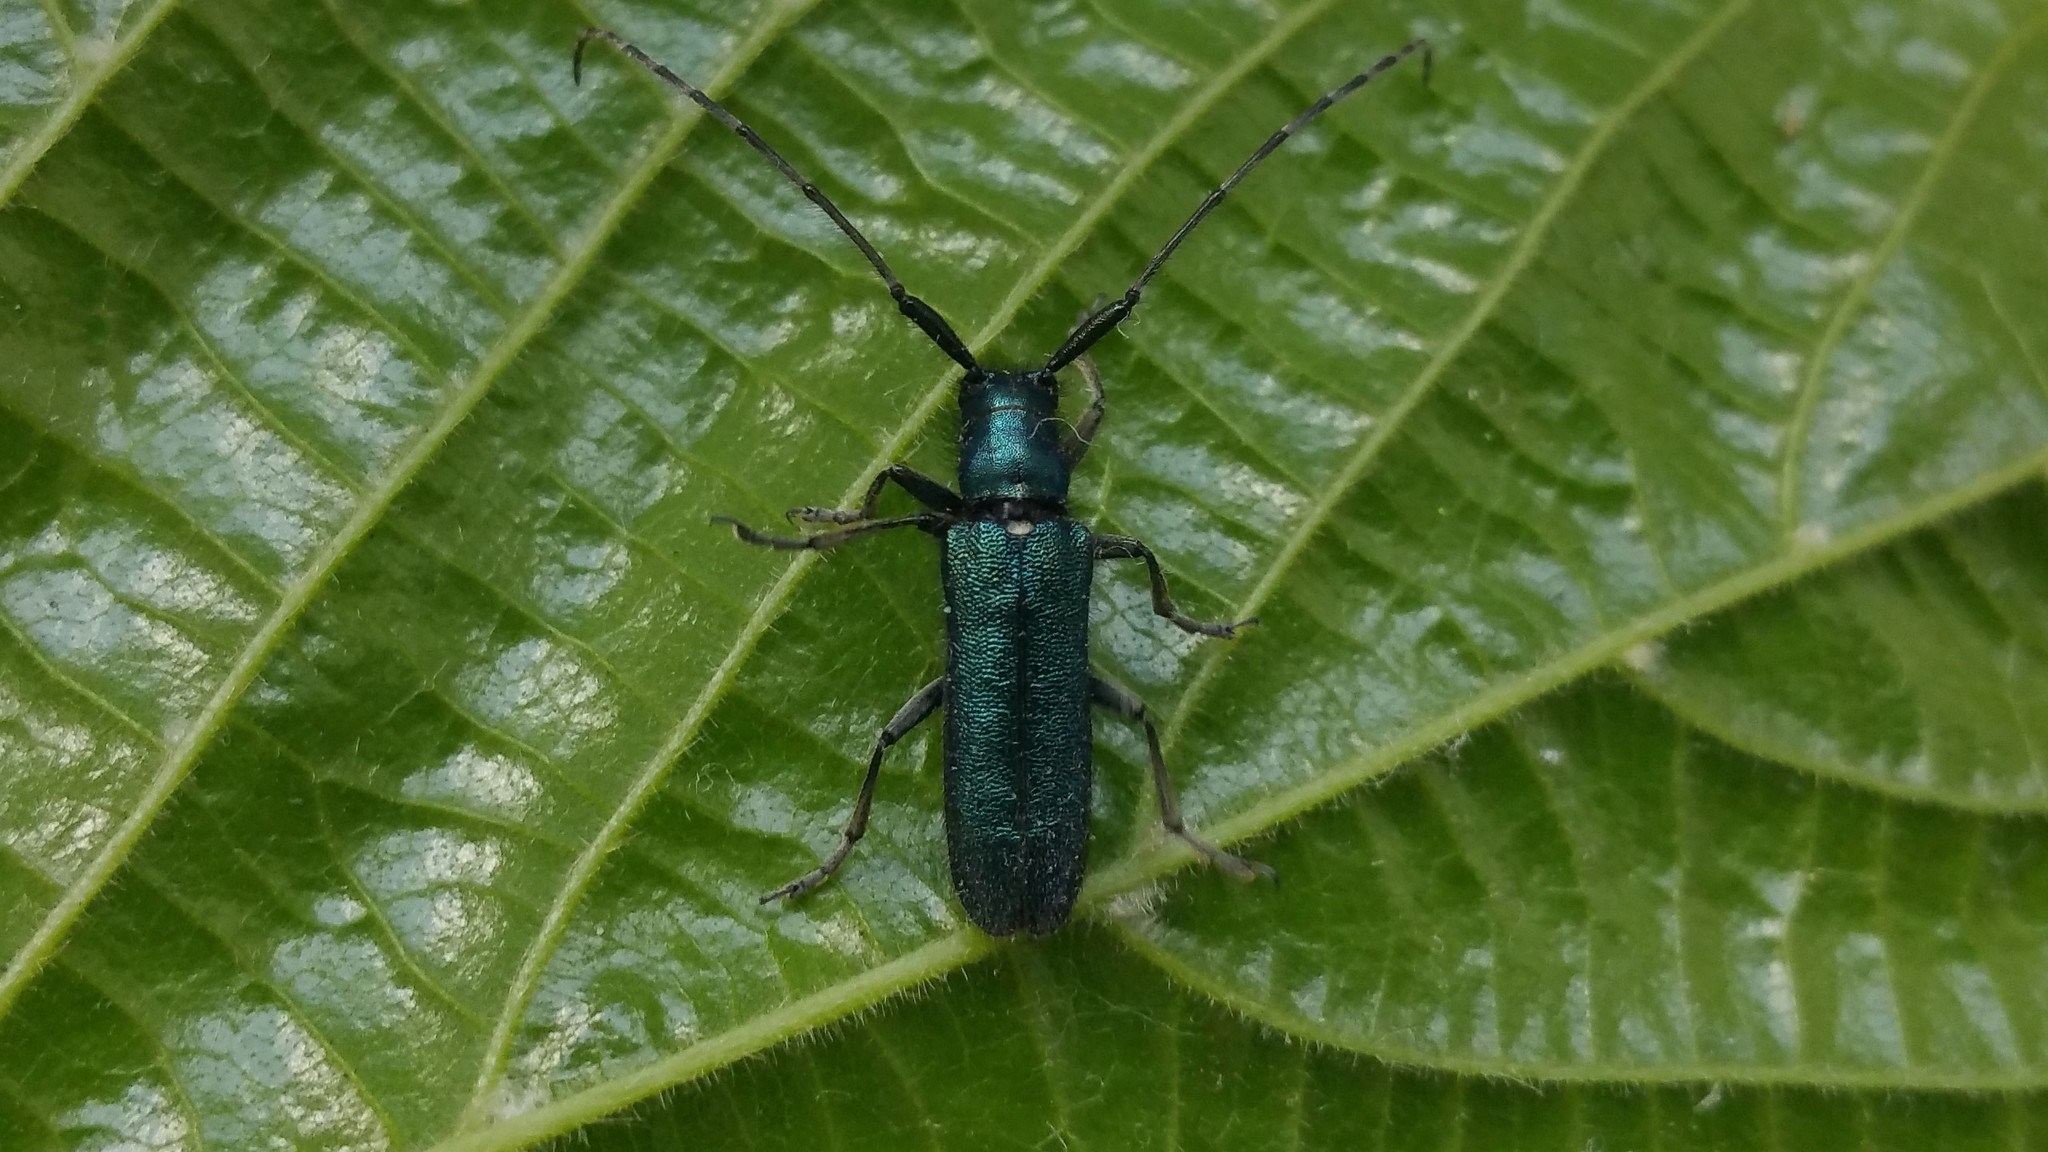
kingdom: Animalia
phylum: Arthropoda
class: Insecta
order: Coleoptera
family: Cerambycidae
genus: Agapanthia
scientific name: Agapanthia violacea
